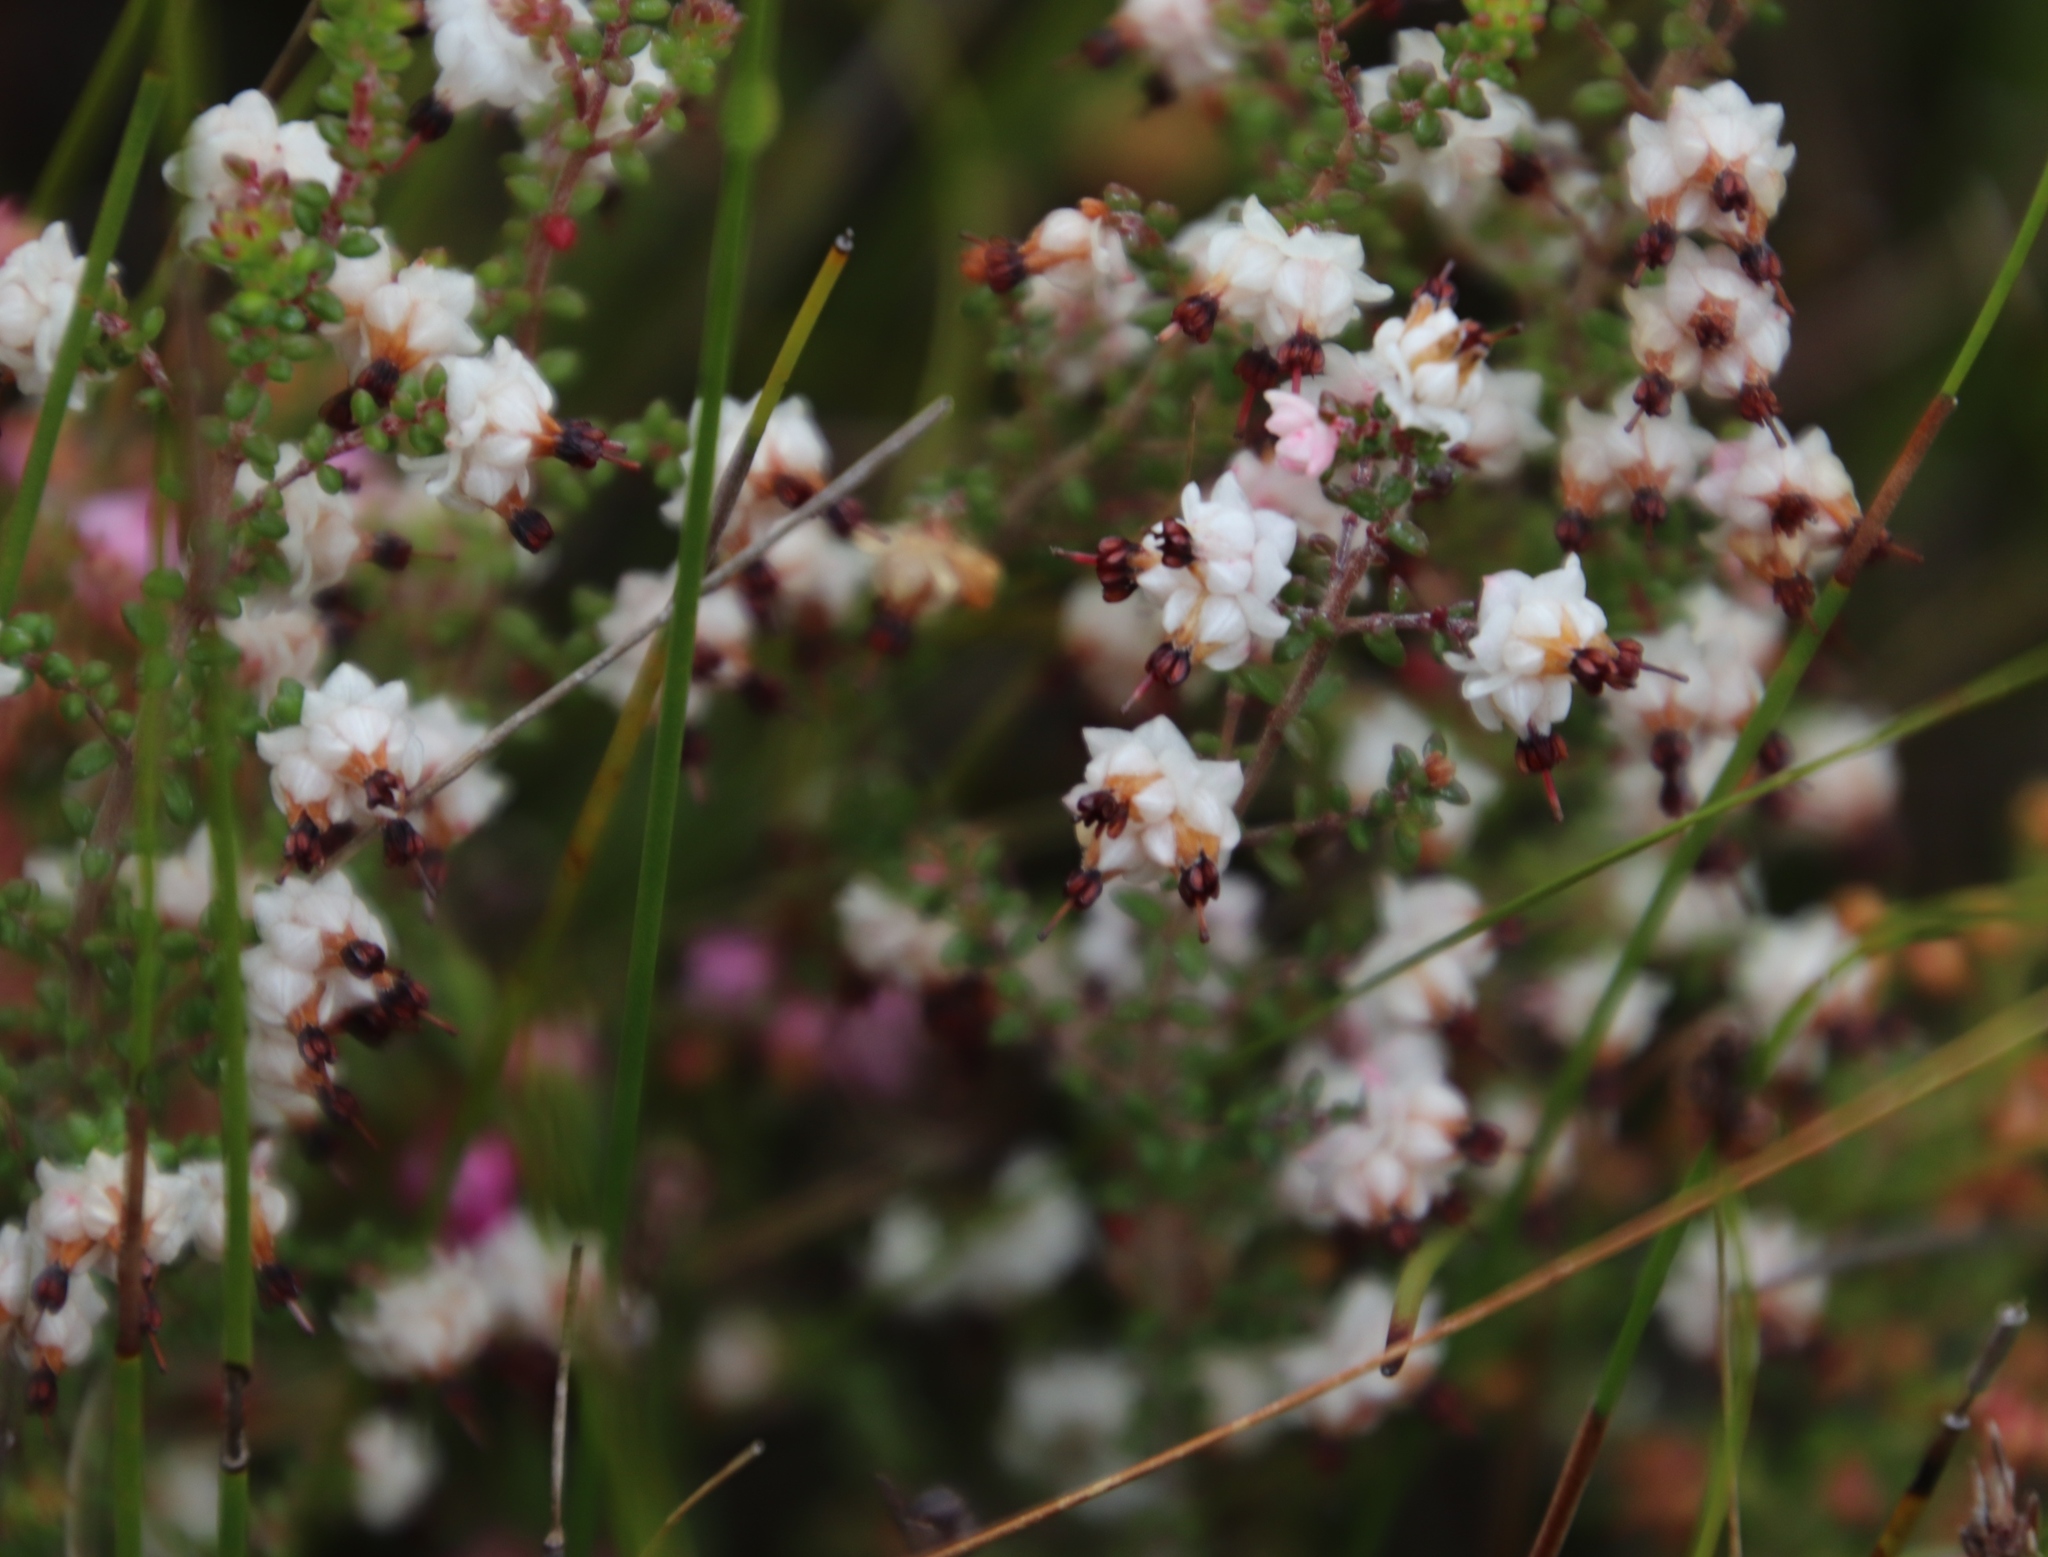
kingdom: Plantae
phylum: Tracheophyta
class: Magnoliopsida
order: Ericales
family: Ericaceae
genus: Erica
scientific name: Erica azaleifolia
